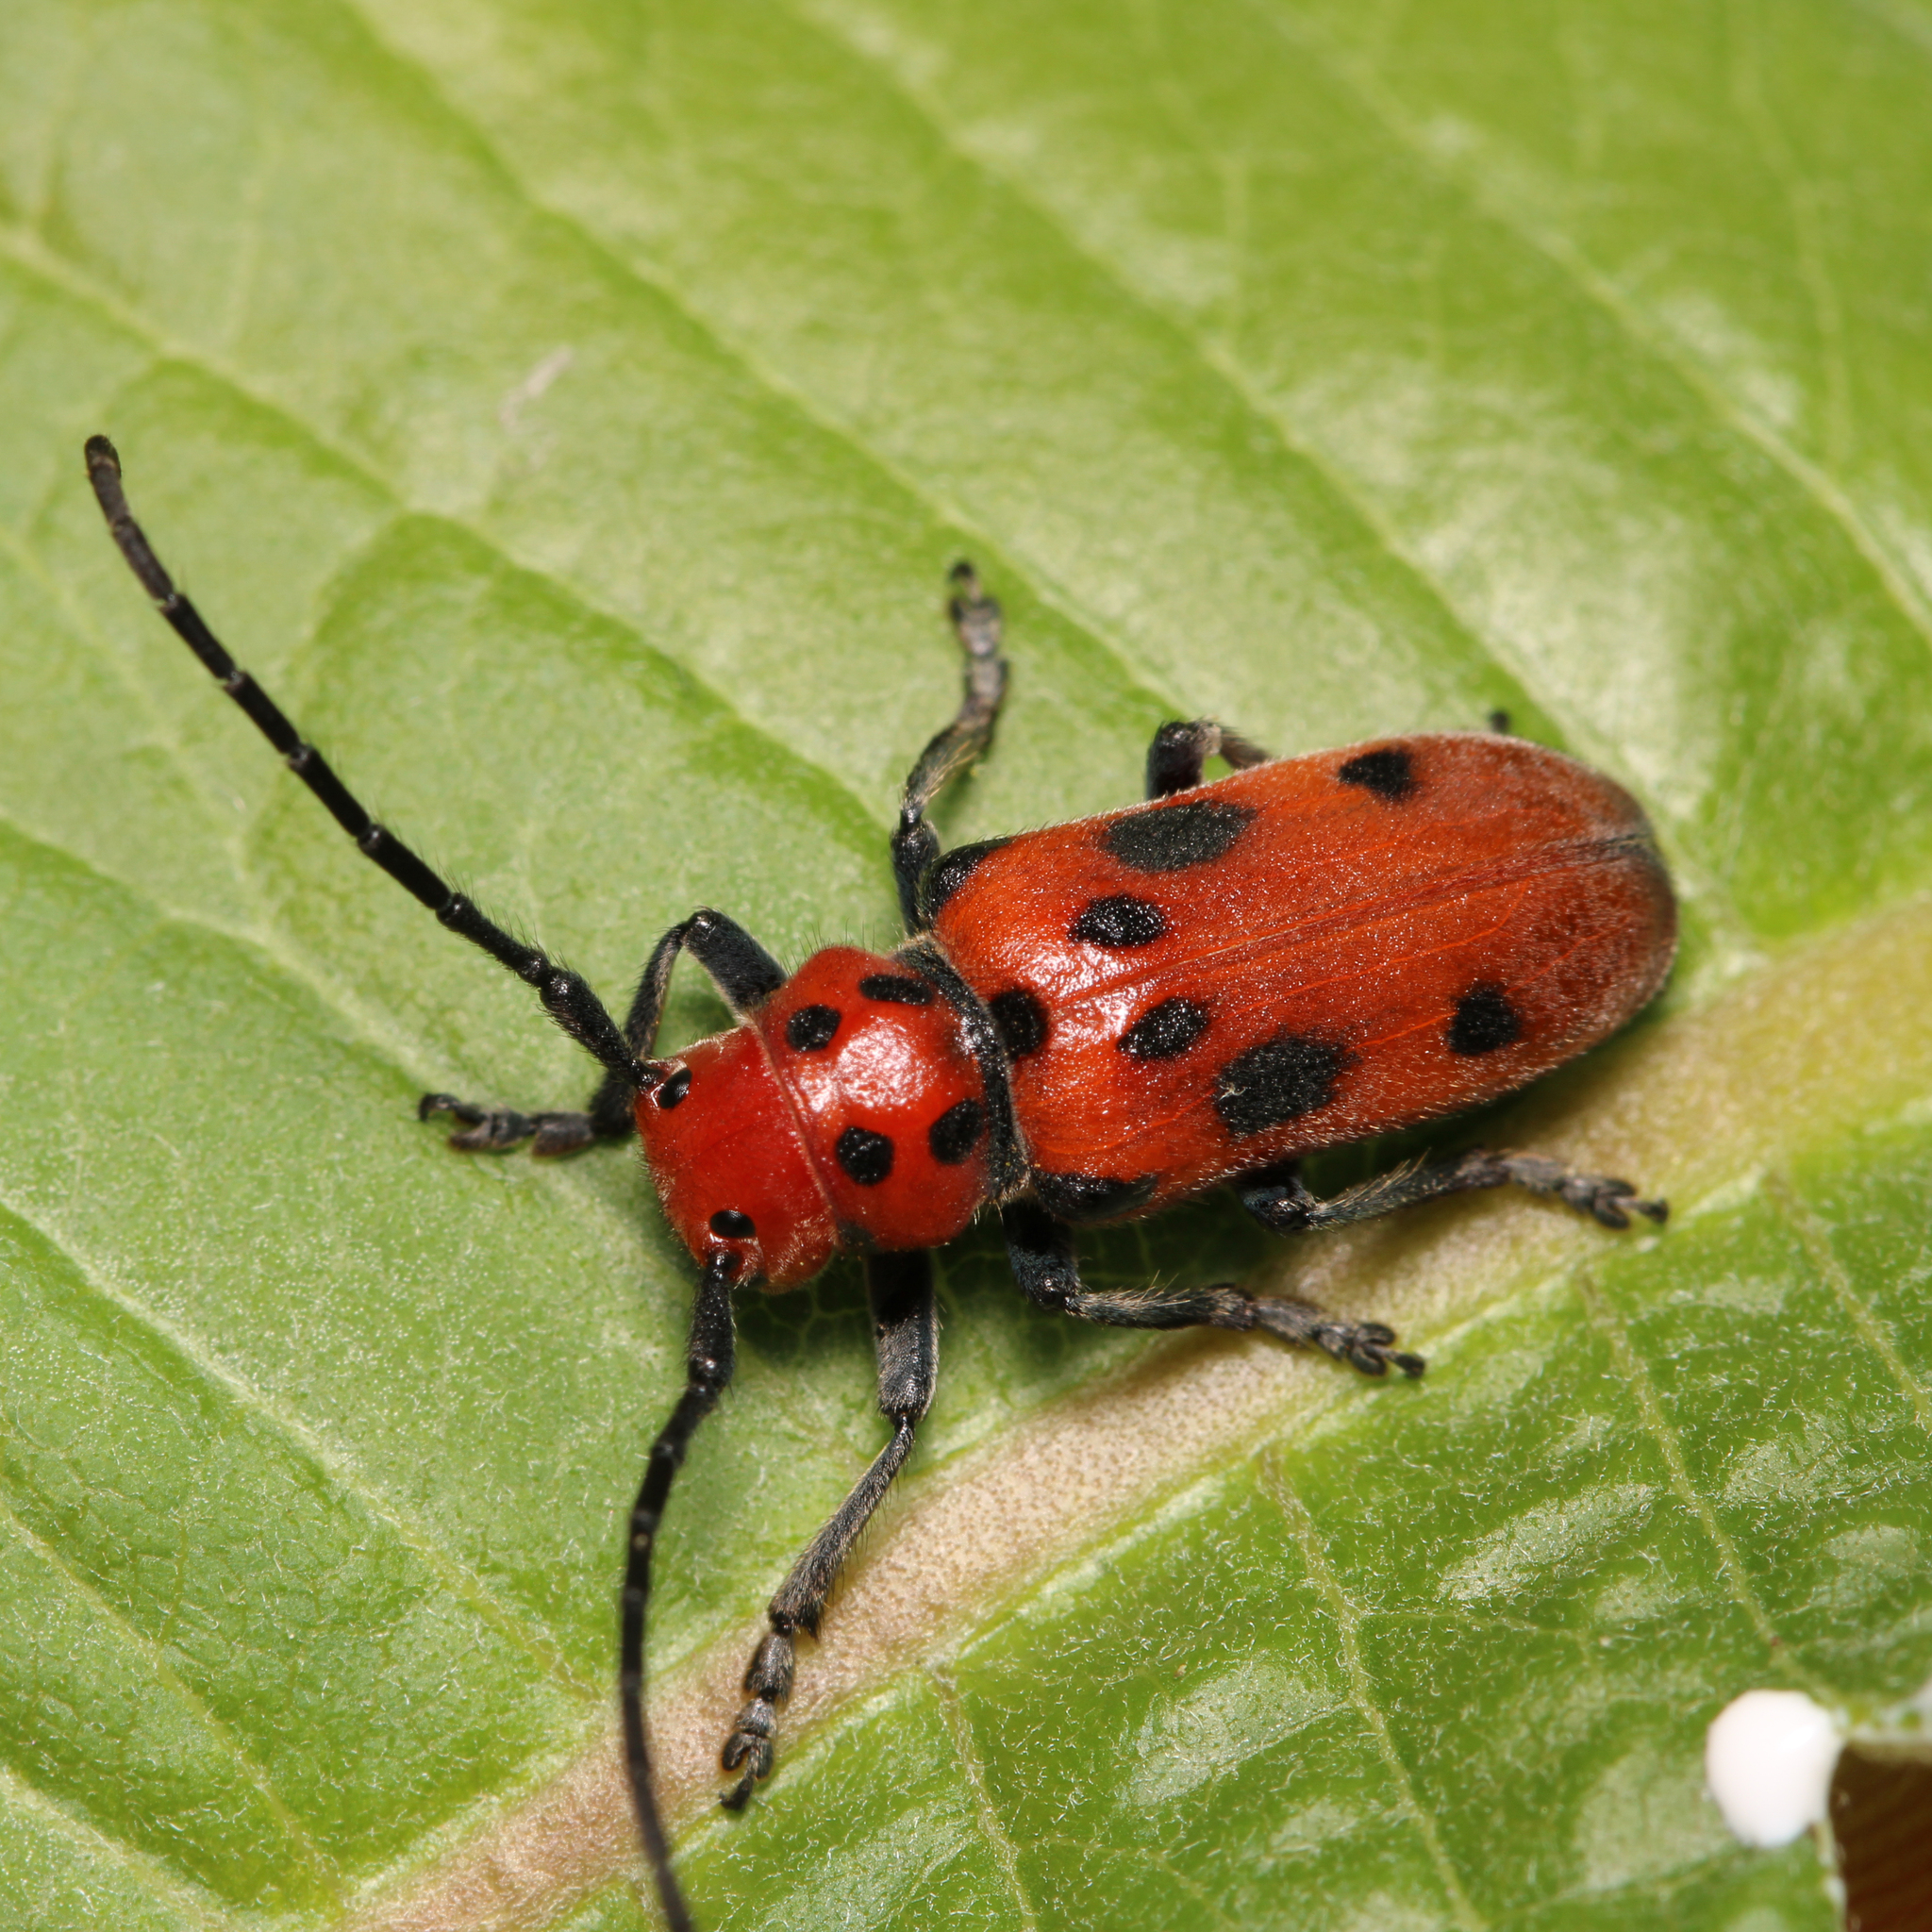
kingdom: Animalia
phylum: Arthropoda
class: Insecta
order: Coleoptera
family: Cerambycidae
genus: Tetraopes
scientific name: Tetraopes tetrophthalmus
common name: Red milkweed beetle
